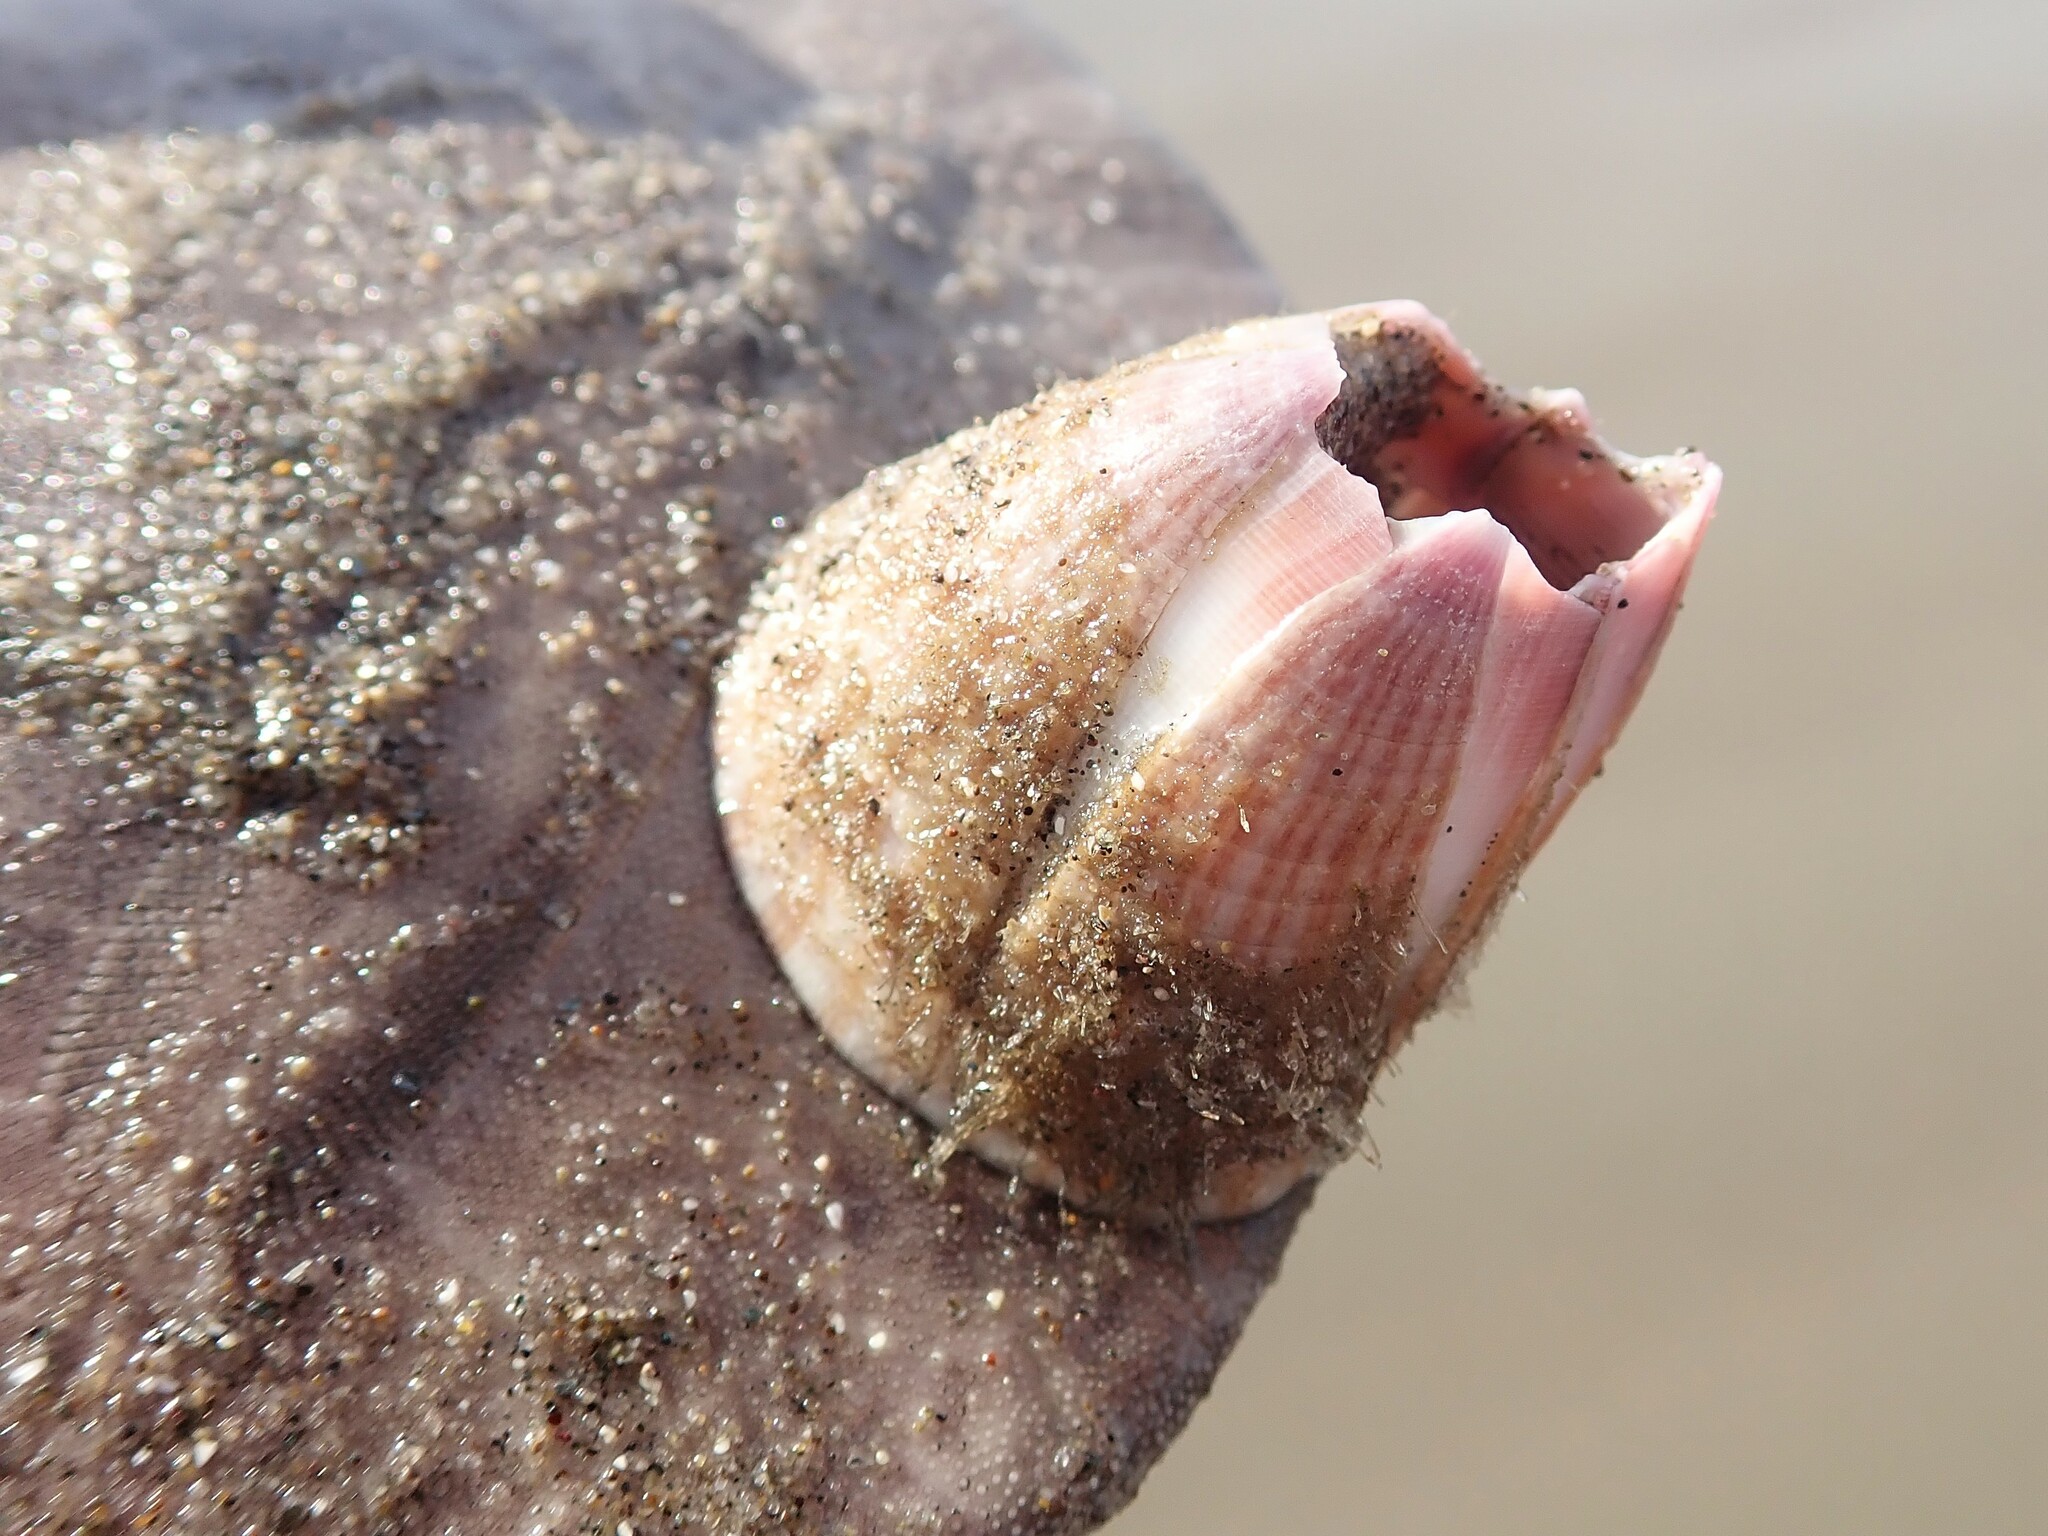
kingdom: Animalia
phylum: Arthropoda
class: Maxillopoda
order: Sessilia
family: Balanidae
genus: Paraconcavus
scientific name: Paraconcavus pacificus
